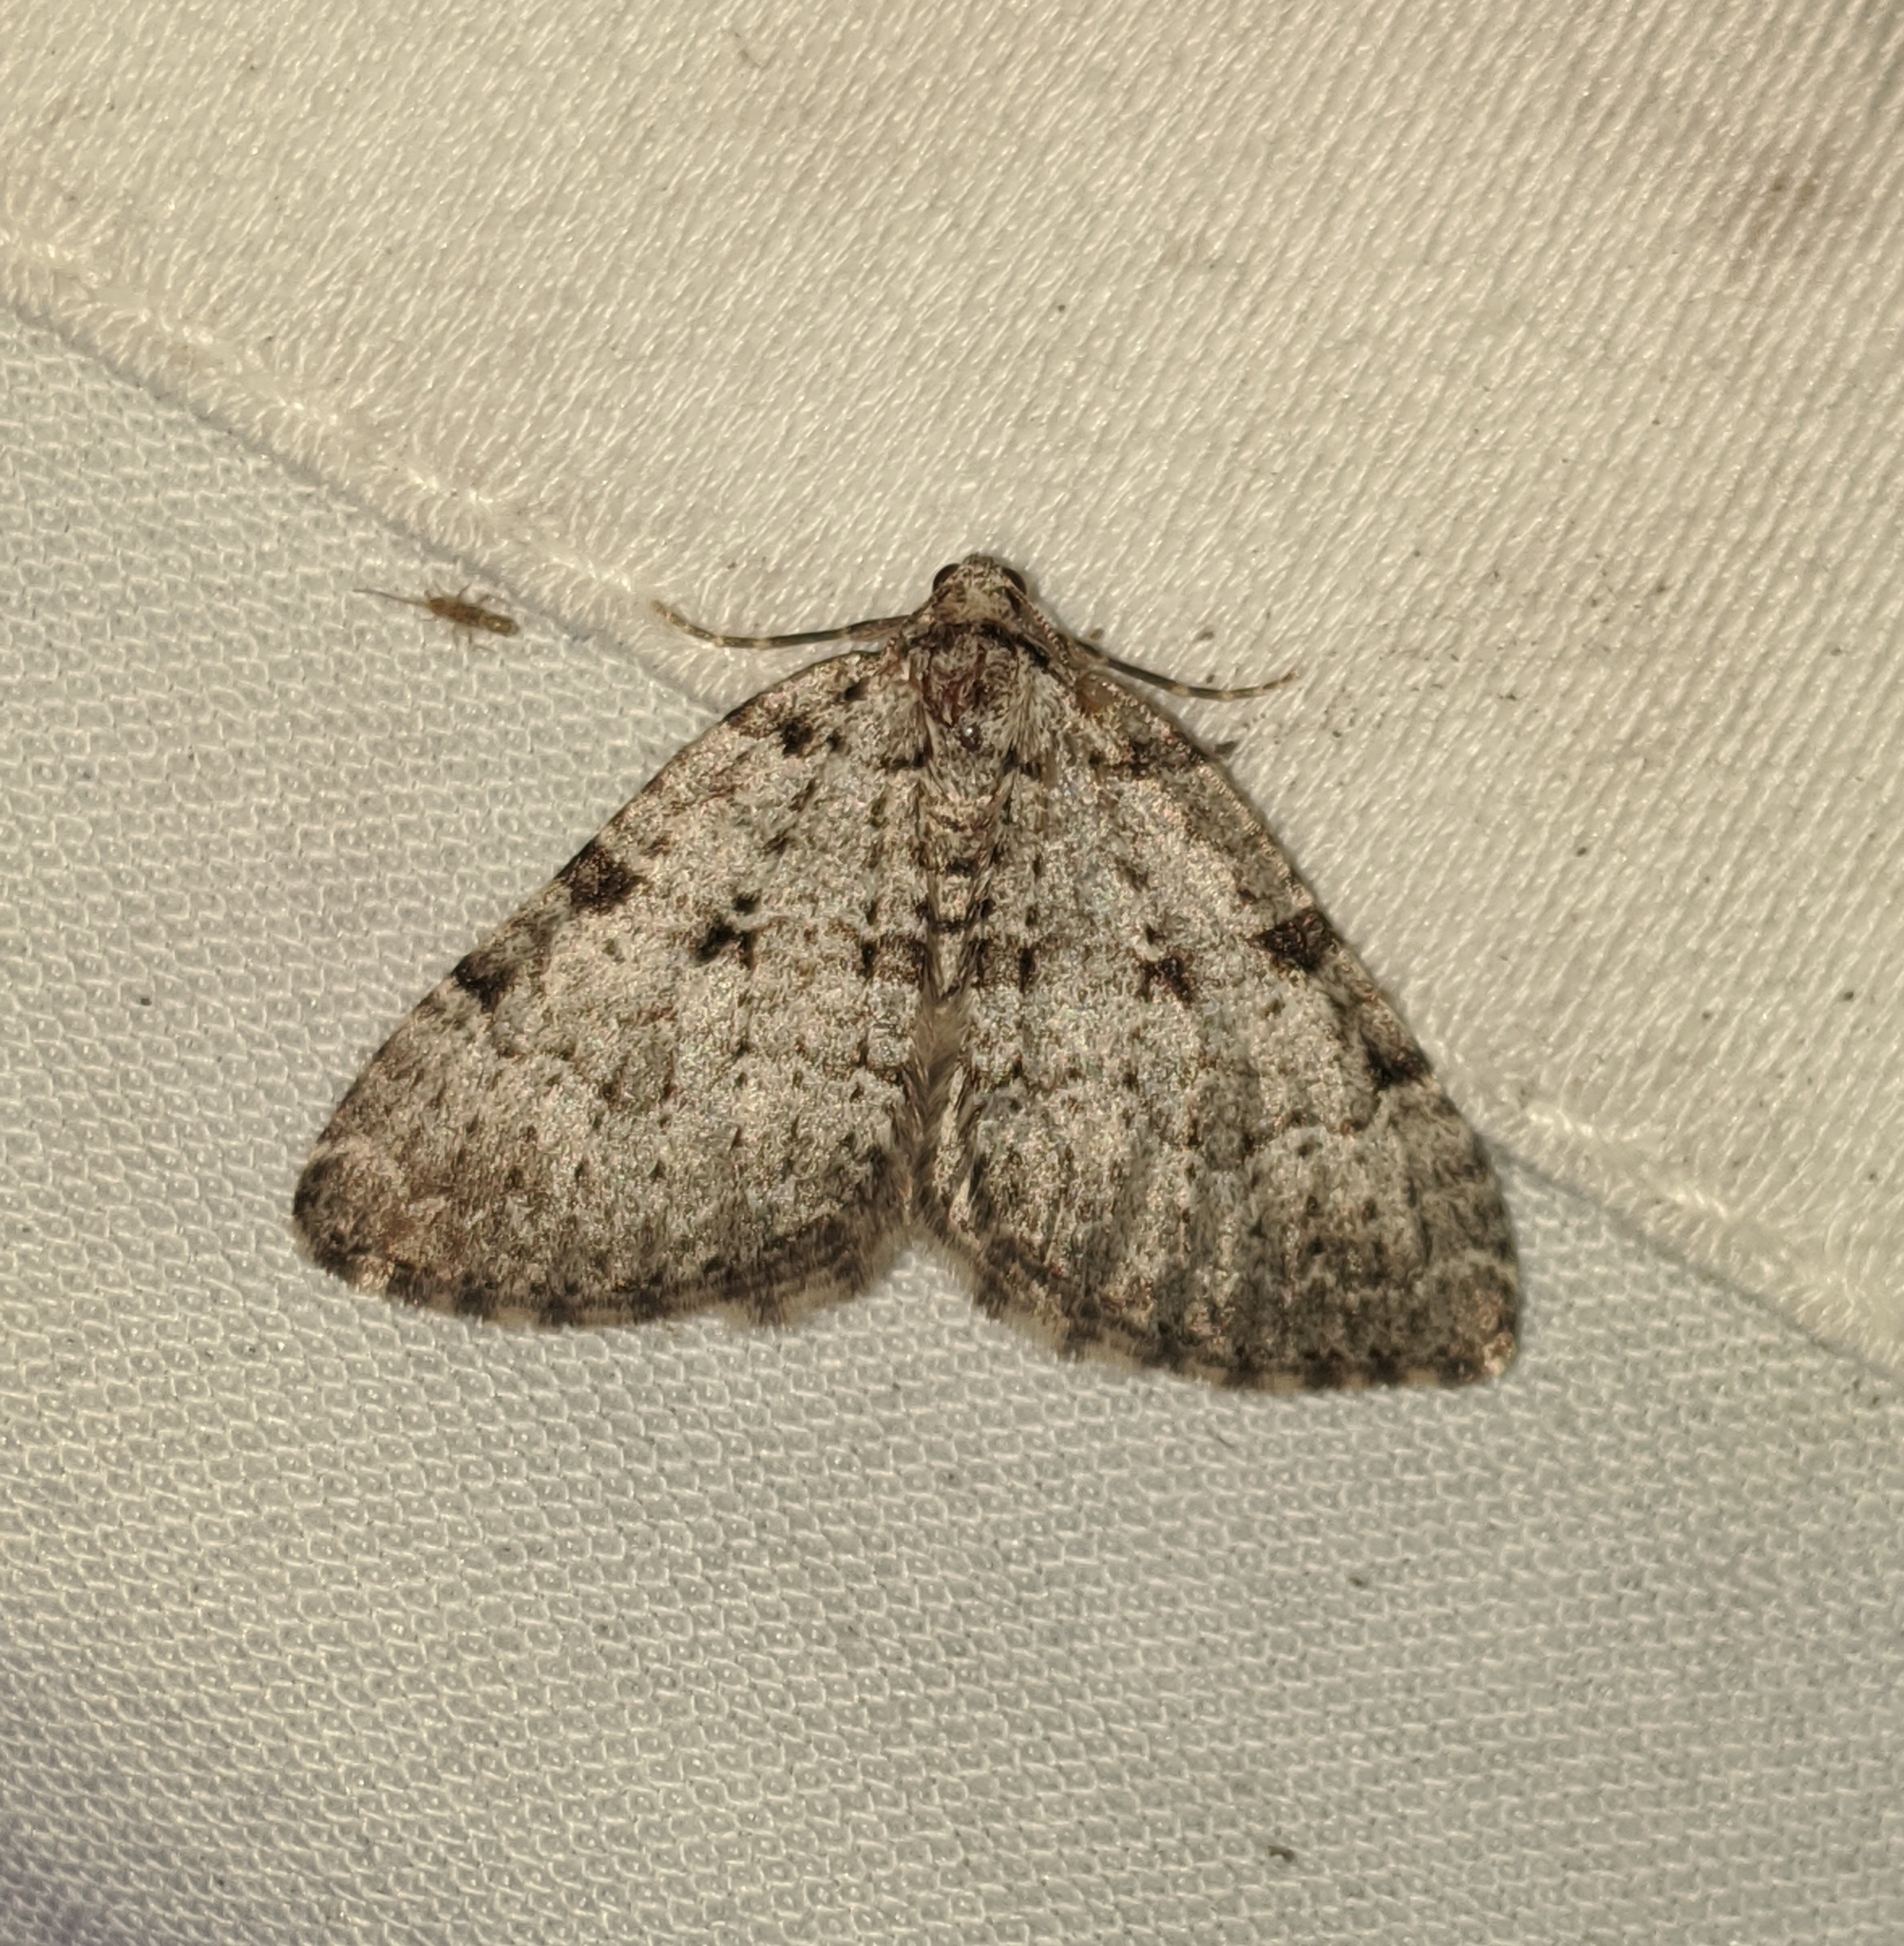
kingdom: Animalia
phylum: Arthropoda
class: Insecta
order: Lepidoptera
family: Geometridae
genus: Perizoma
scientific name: Perizoma curvilinea
